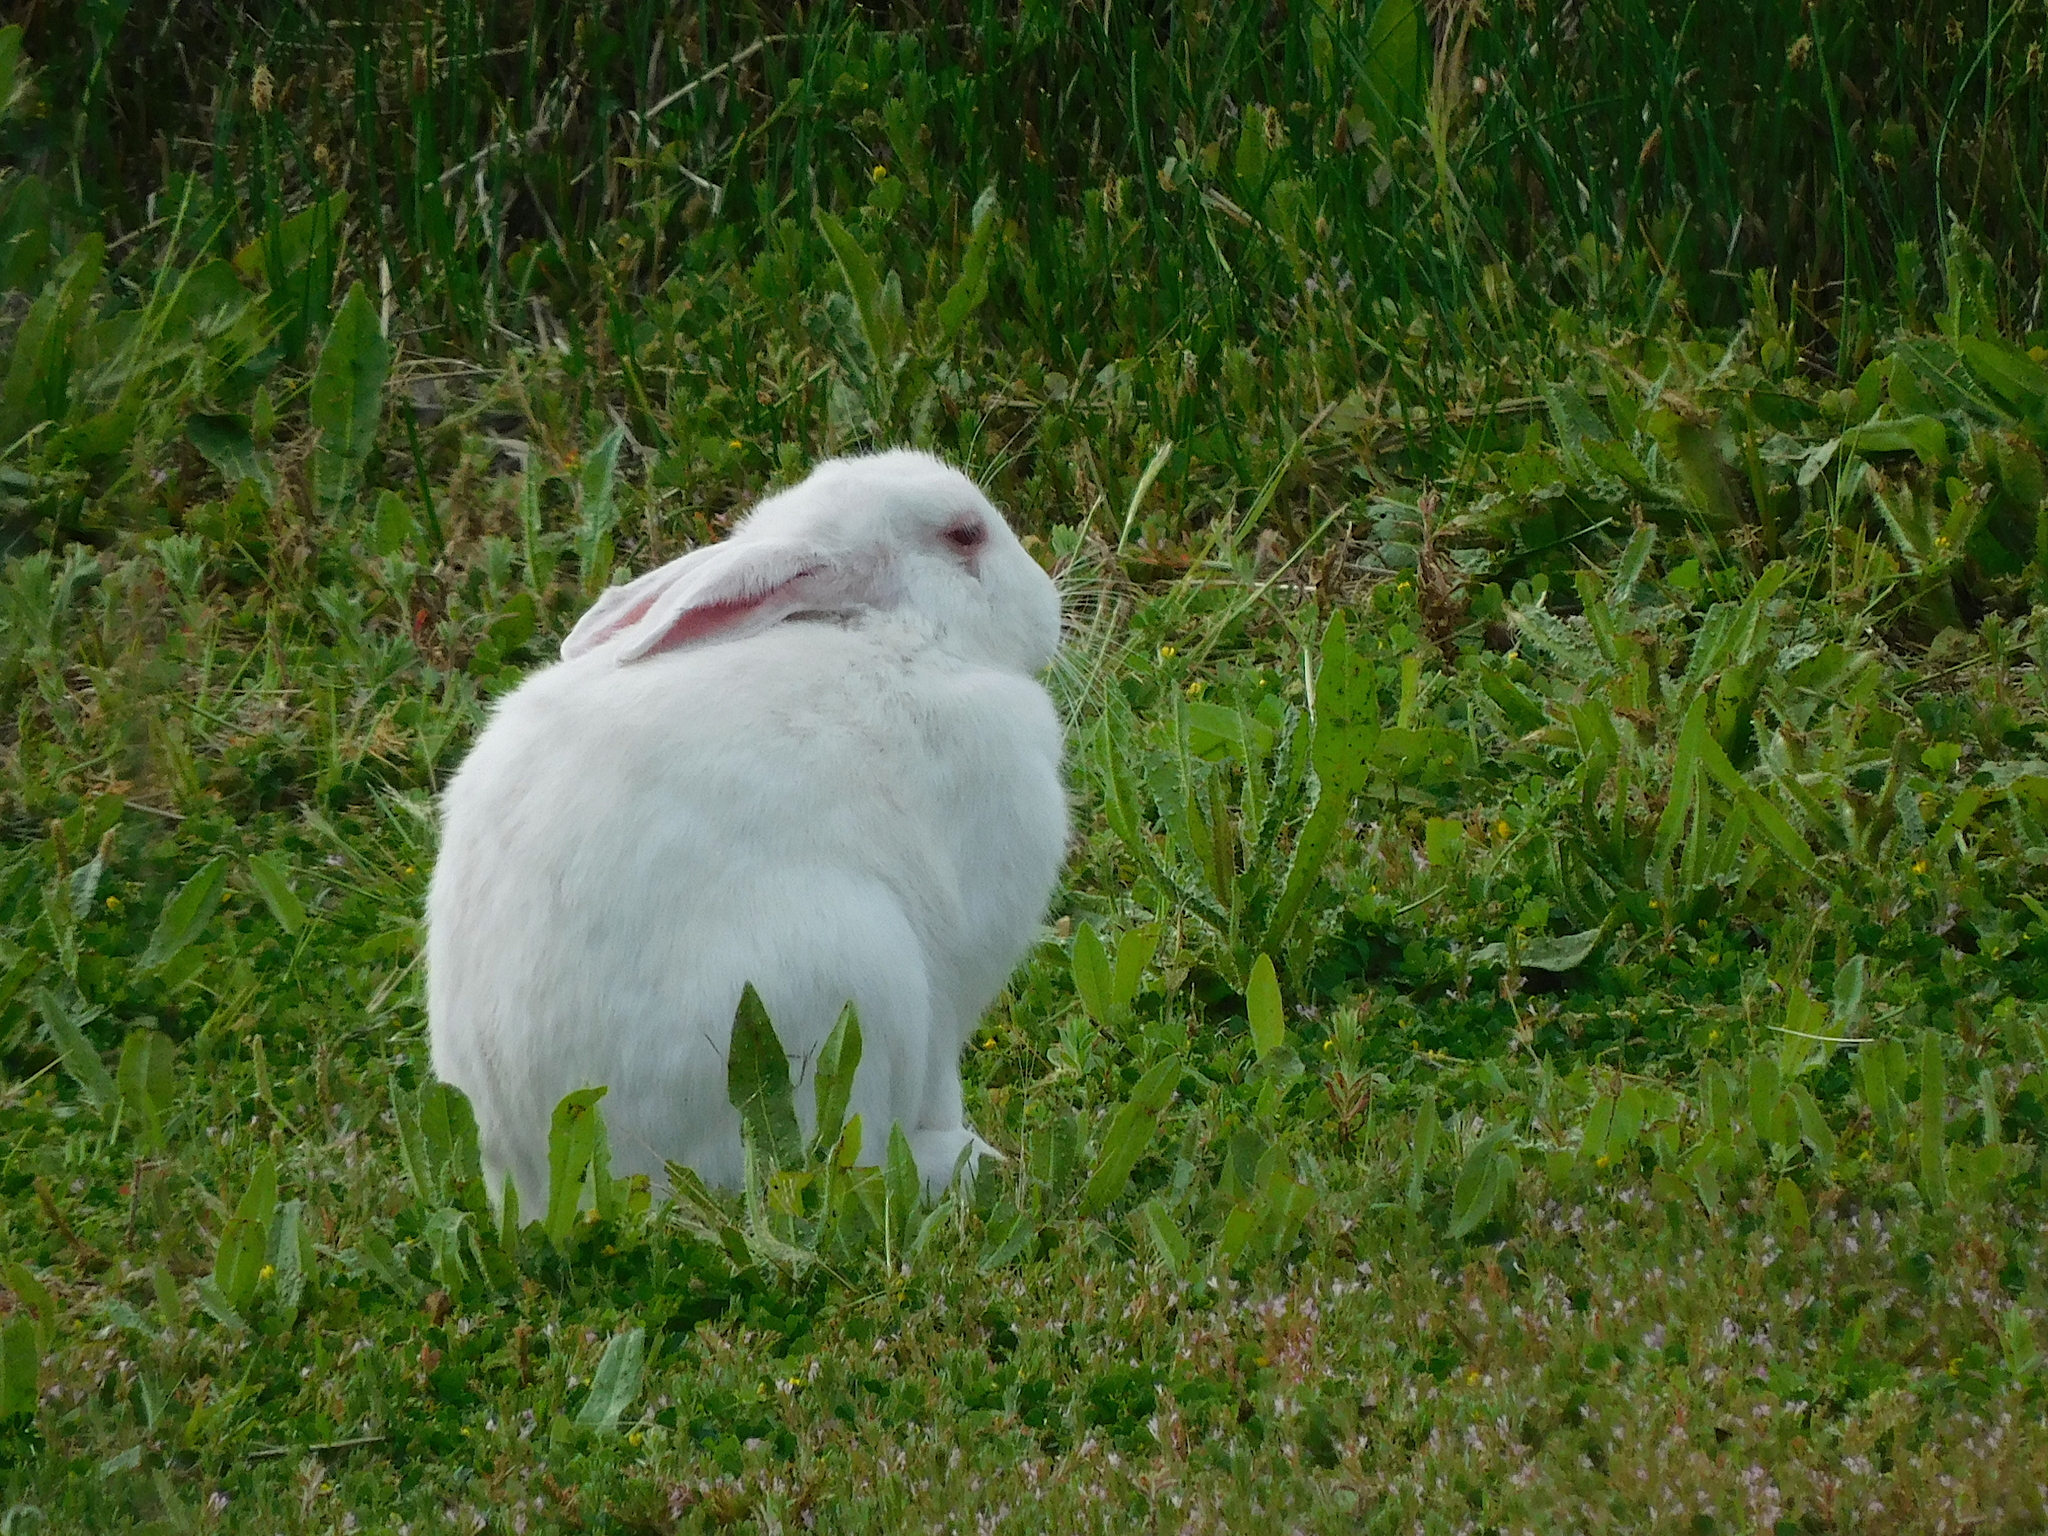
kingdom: Animalia
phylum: Chordata
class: Mammalia
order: Lagomorpha
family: Leporidae
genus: Oryctolagus
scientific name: Oryctolagus cuniculus
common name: European rabbit
